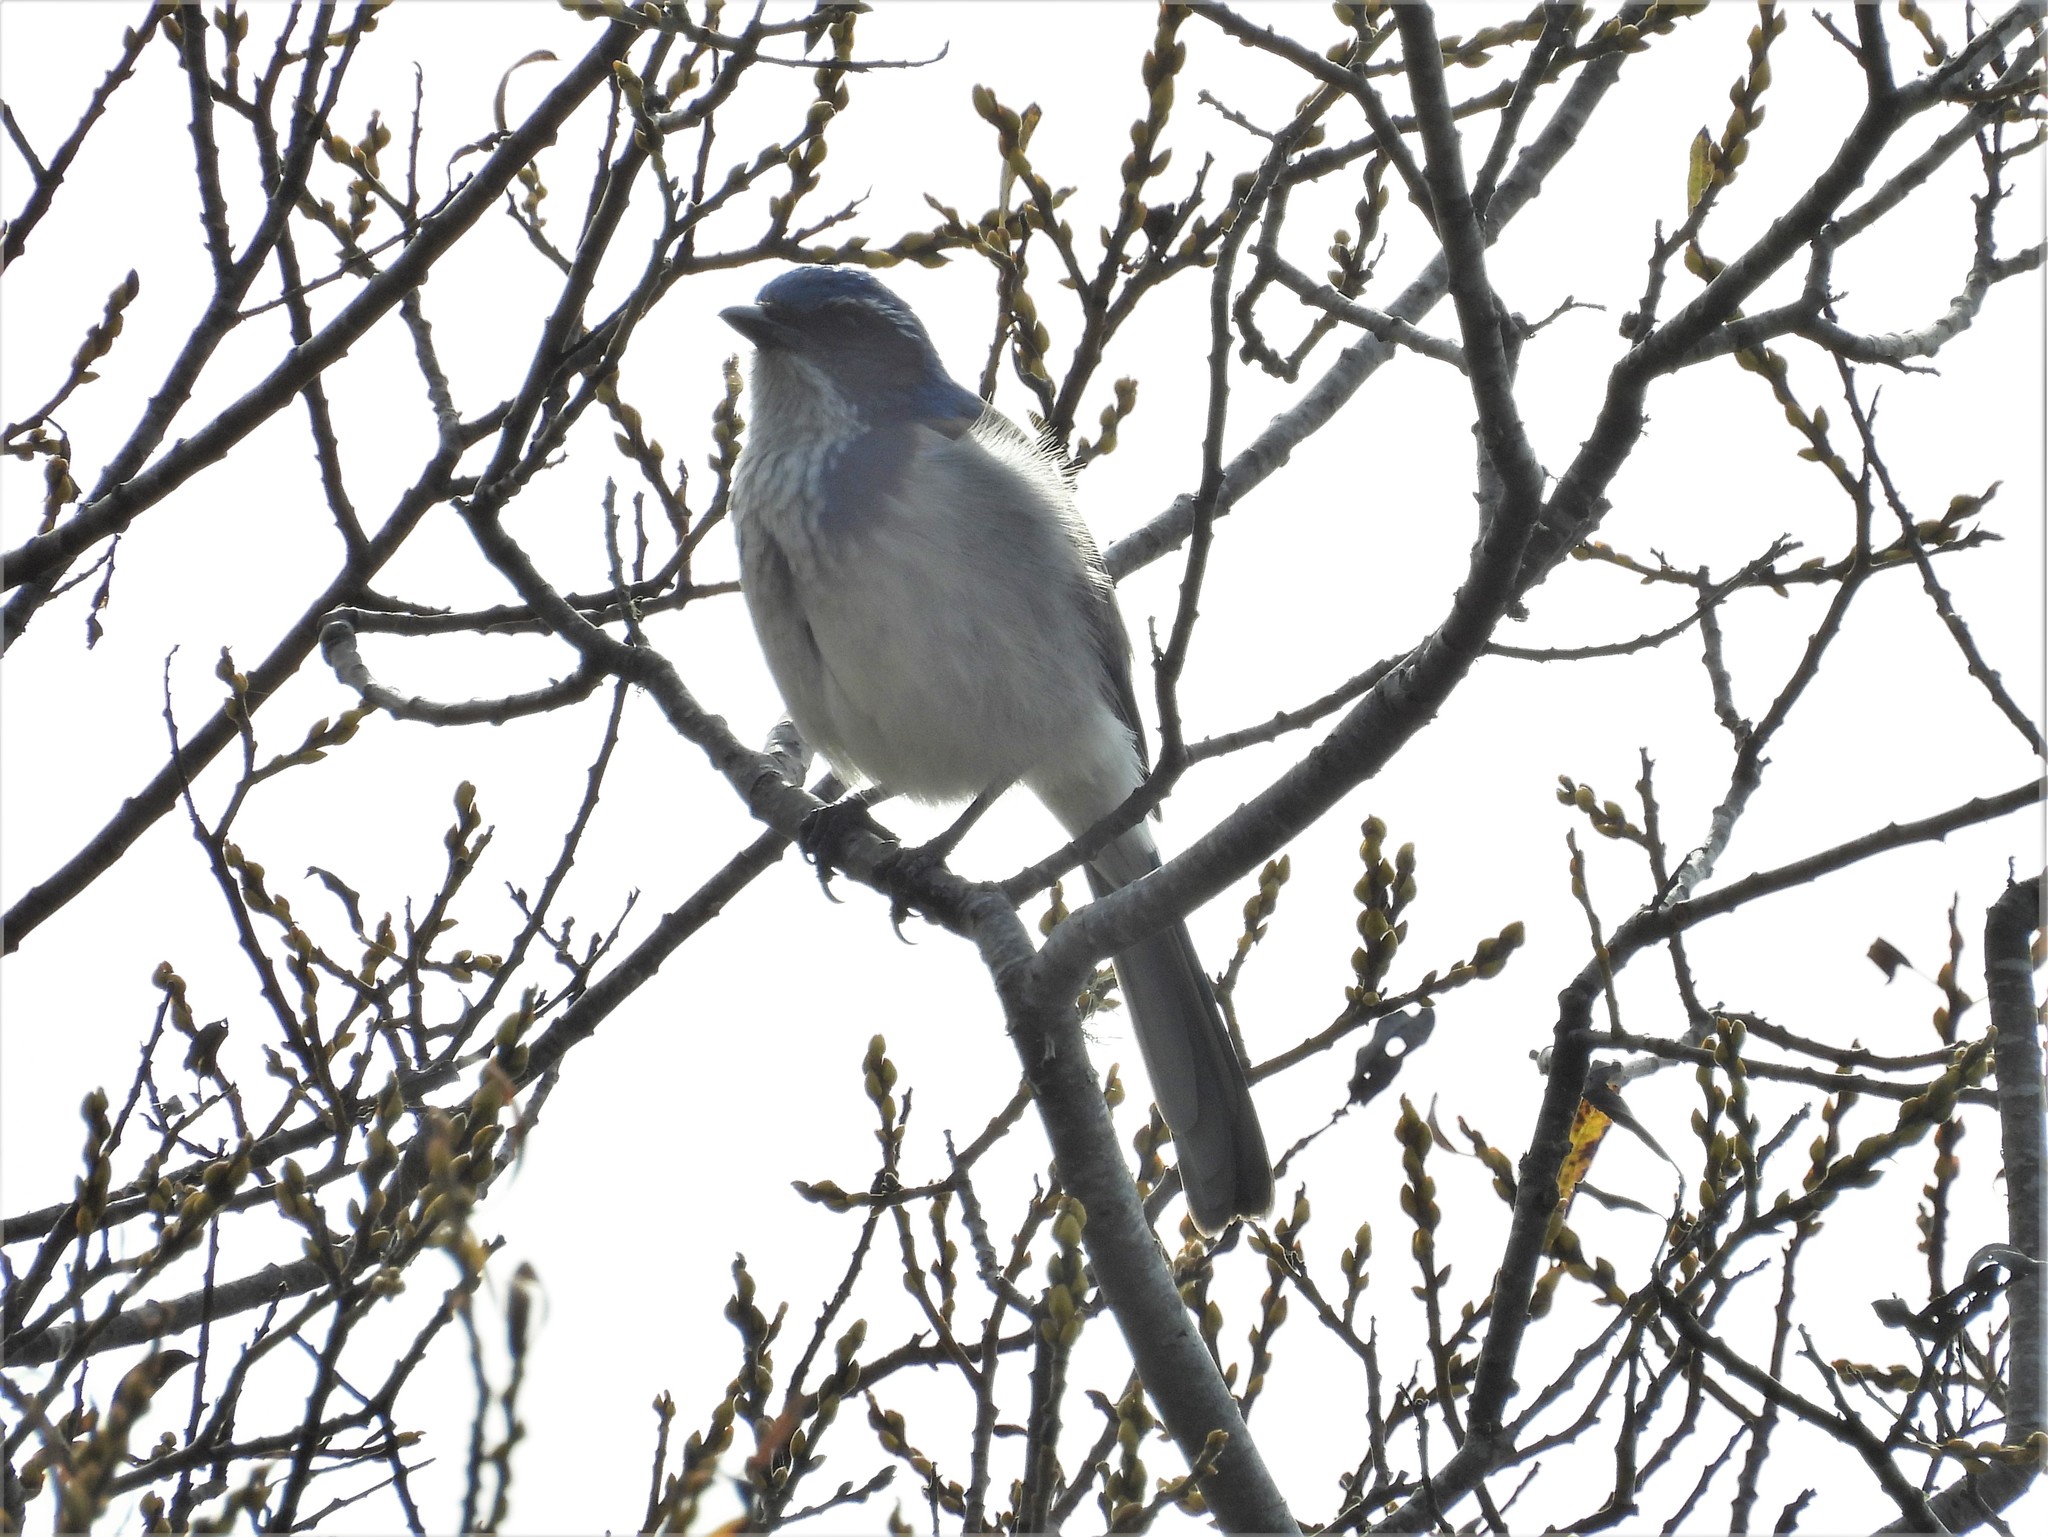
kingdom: Animalia
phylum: Chordata
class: Aves
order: Passeriformes
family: Corvidae
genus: Aphelocoma
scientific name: Aphelocoma californica
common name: California scrub-jay
